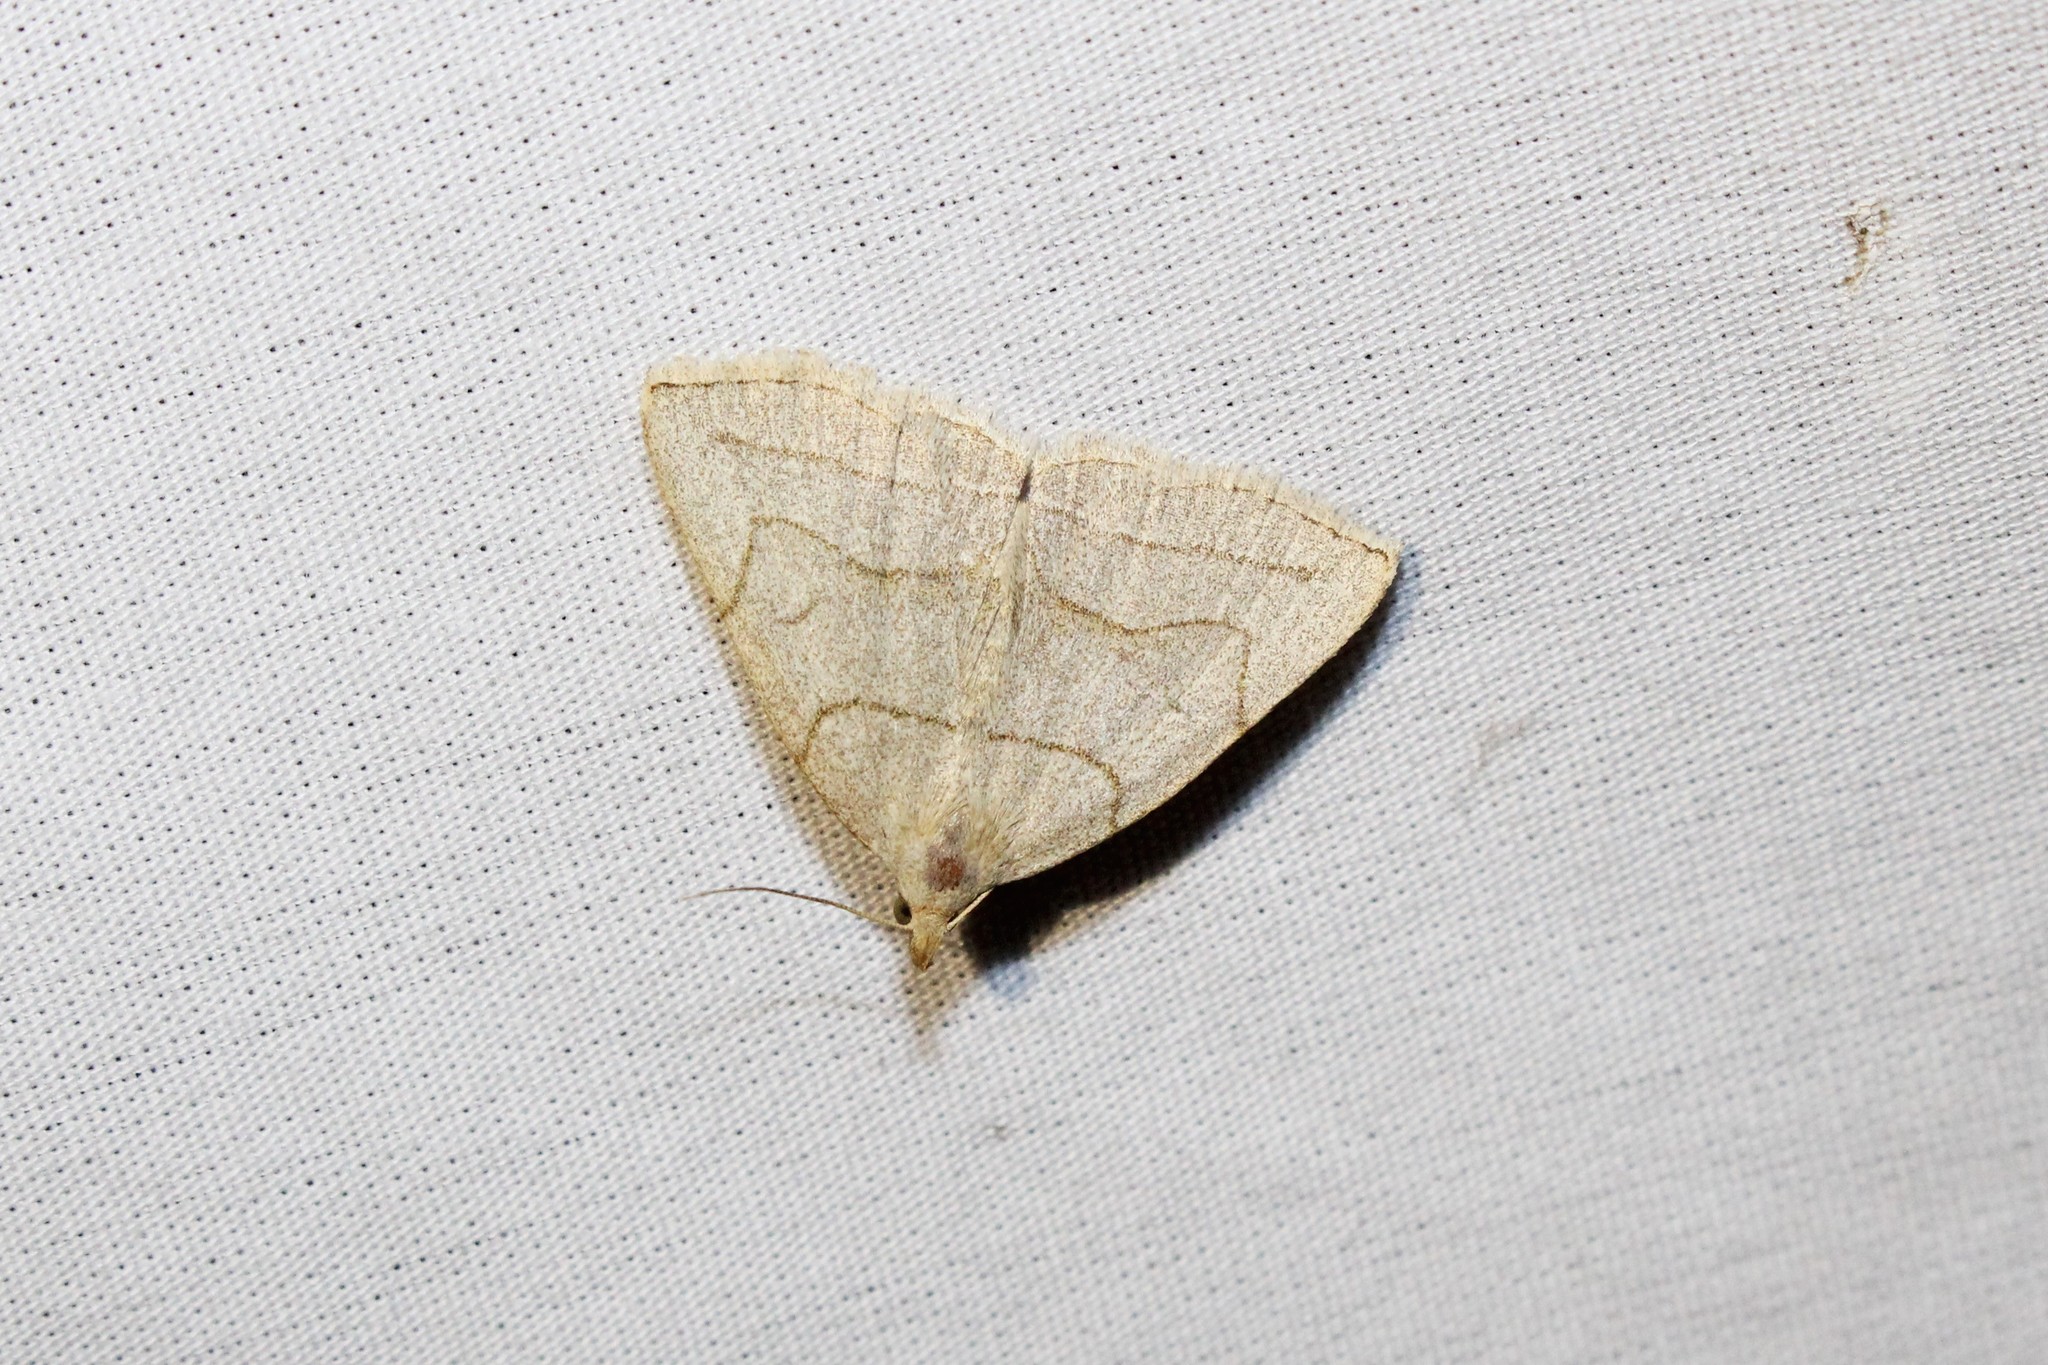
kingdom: Animalia
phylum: Arthropoda
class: Insecta
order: Lepidoptera
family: Erebidae
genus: Zanclognatha
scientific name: Zanclognatha pedipilalis
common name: Grayish fan-foot
